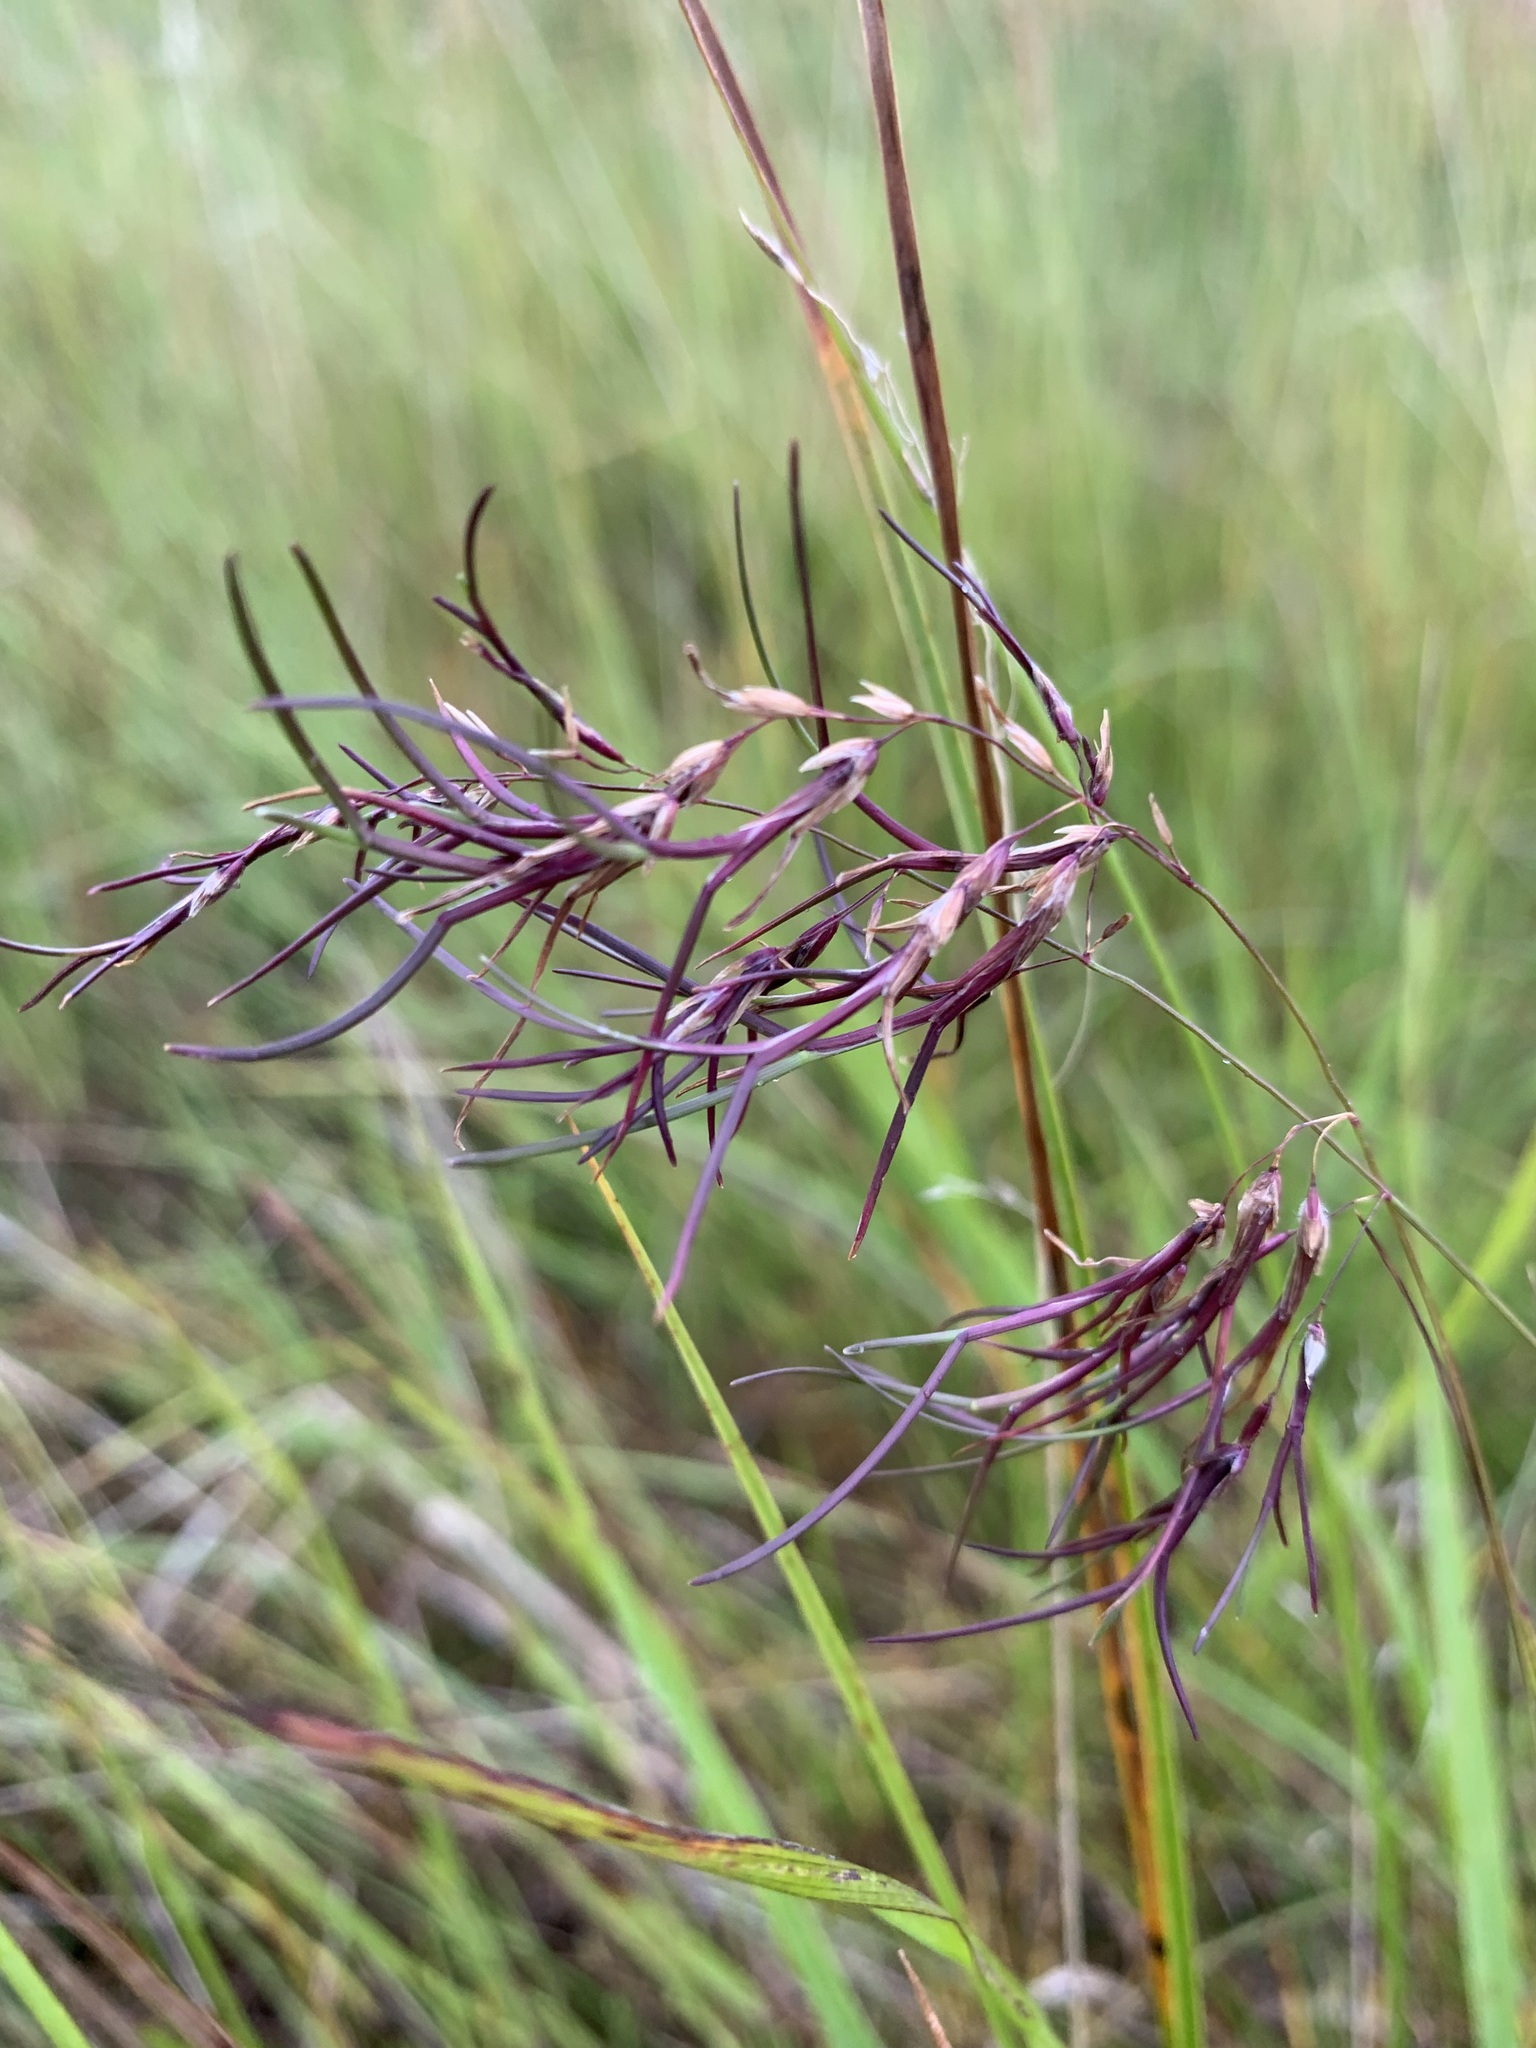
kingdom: Plantae
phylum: Tracheophyta
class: Liliopsida
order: Poales
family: Poaceae
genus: Poa
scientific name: Poa alpigena
